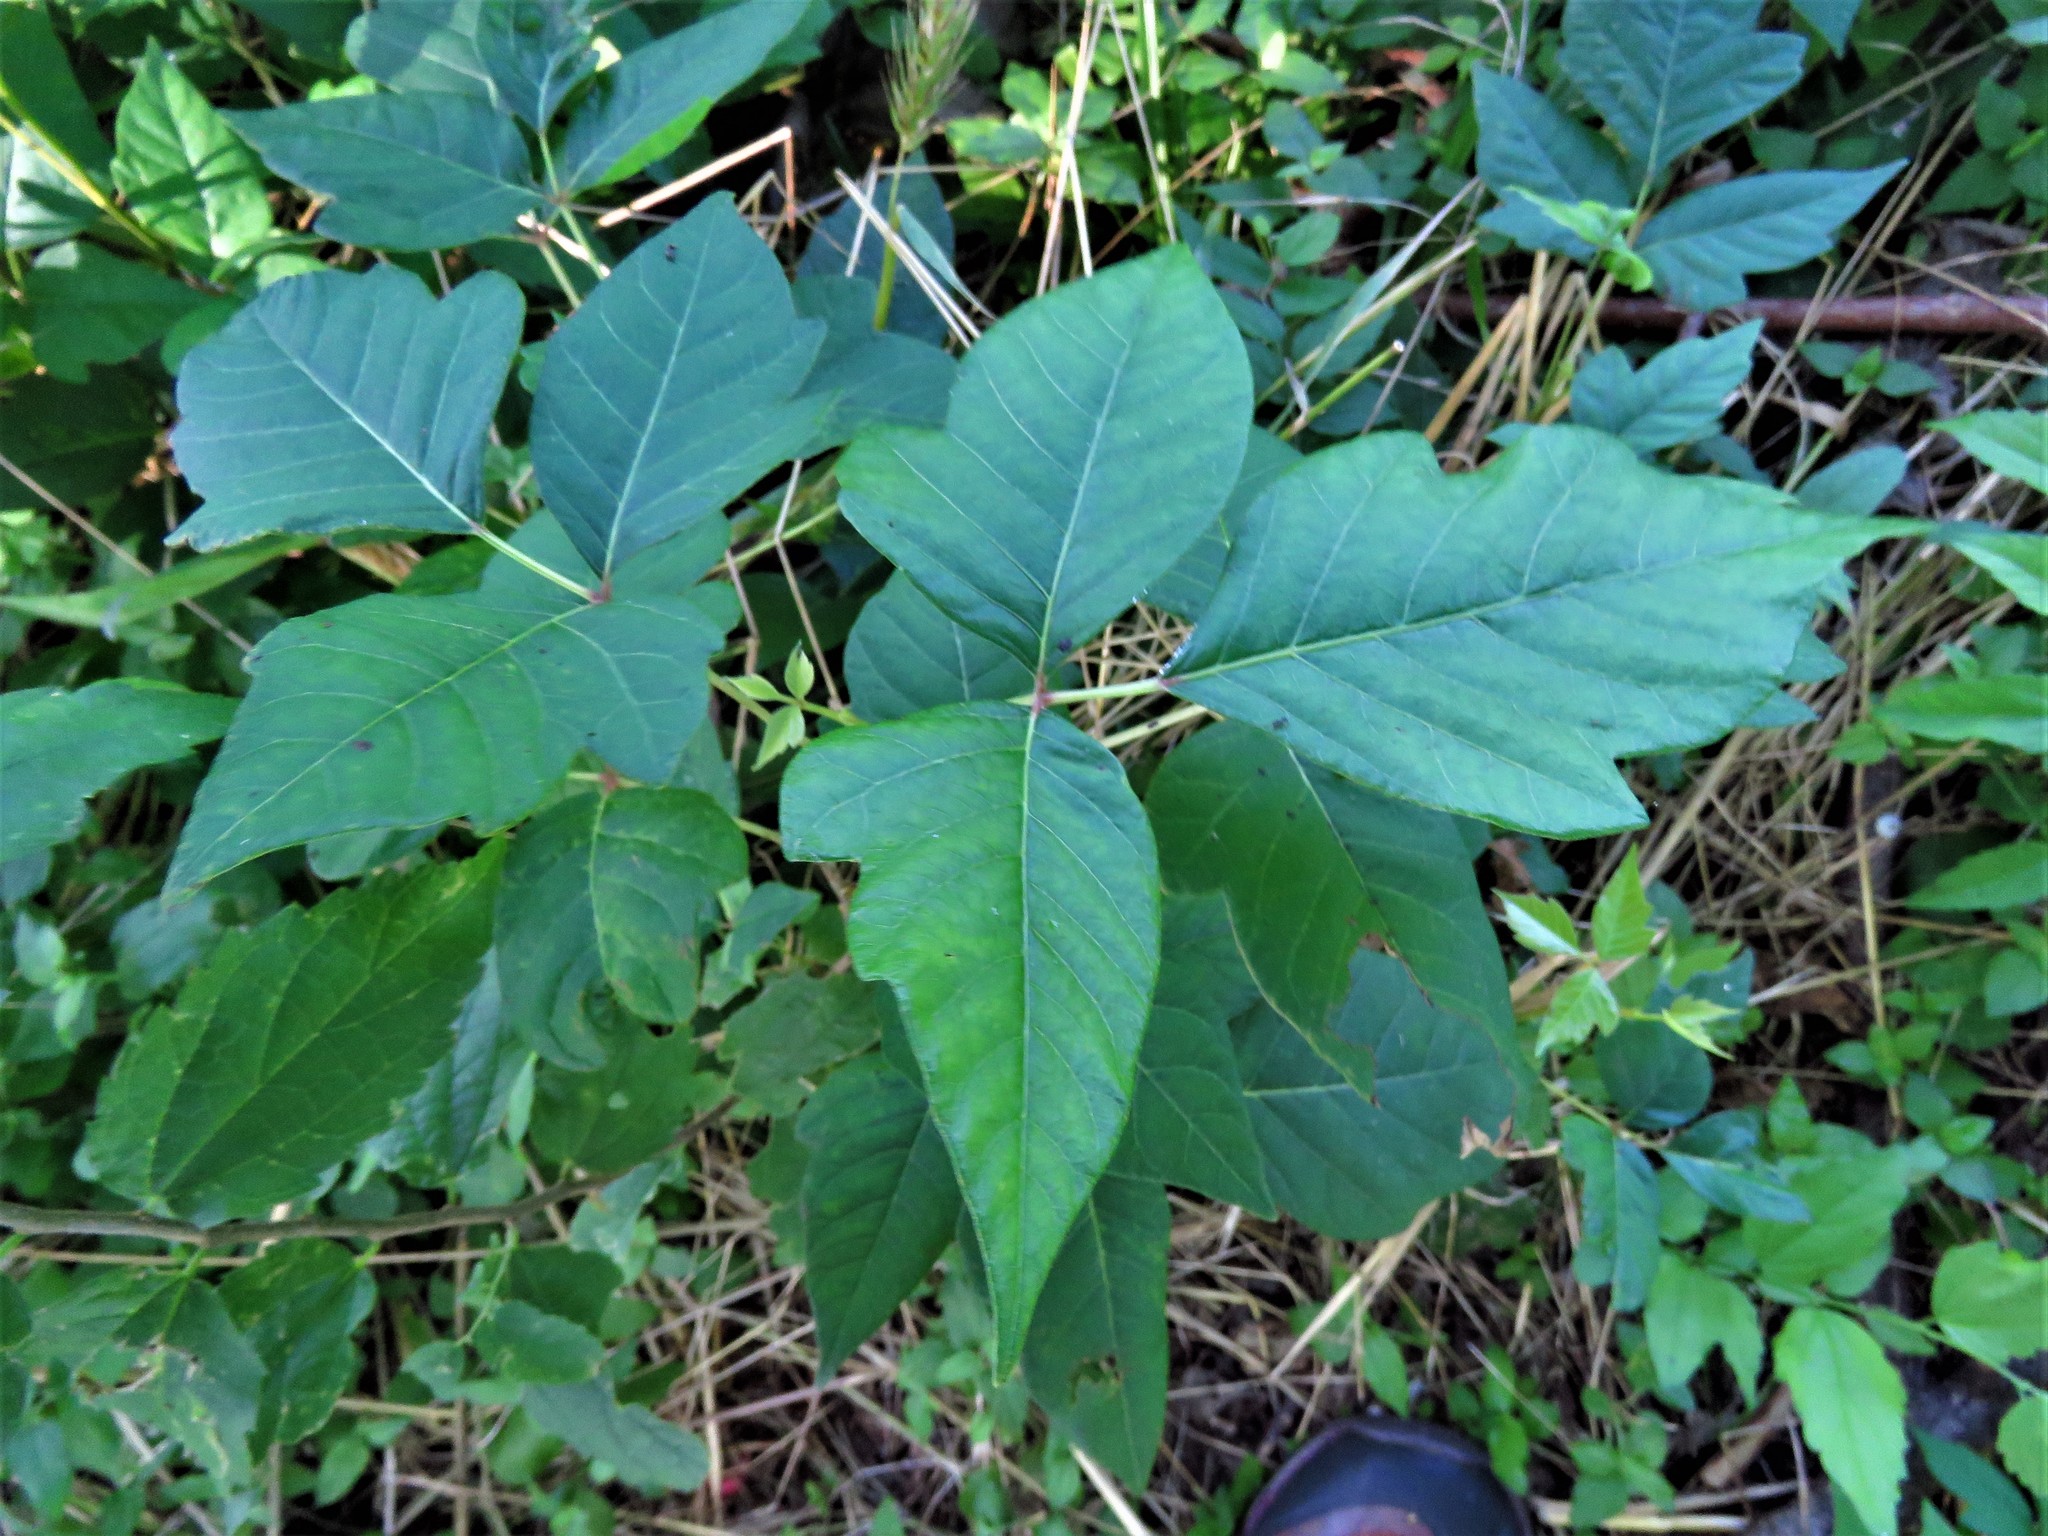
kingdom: Plantae
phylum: Tracheophyta
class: Magnoliopsida
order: Sapindales
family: Anacardiaceae
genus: Toxicodendron
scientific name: Toxicodendron radicans
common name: Poison ivy
